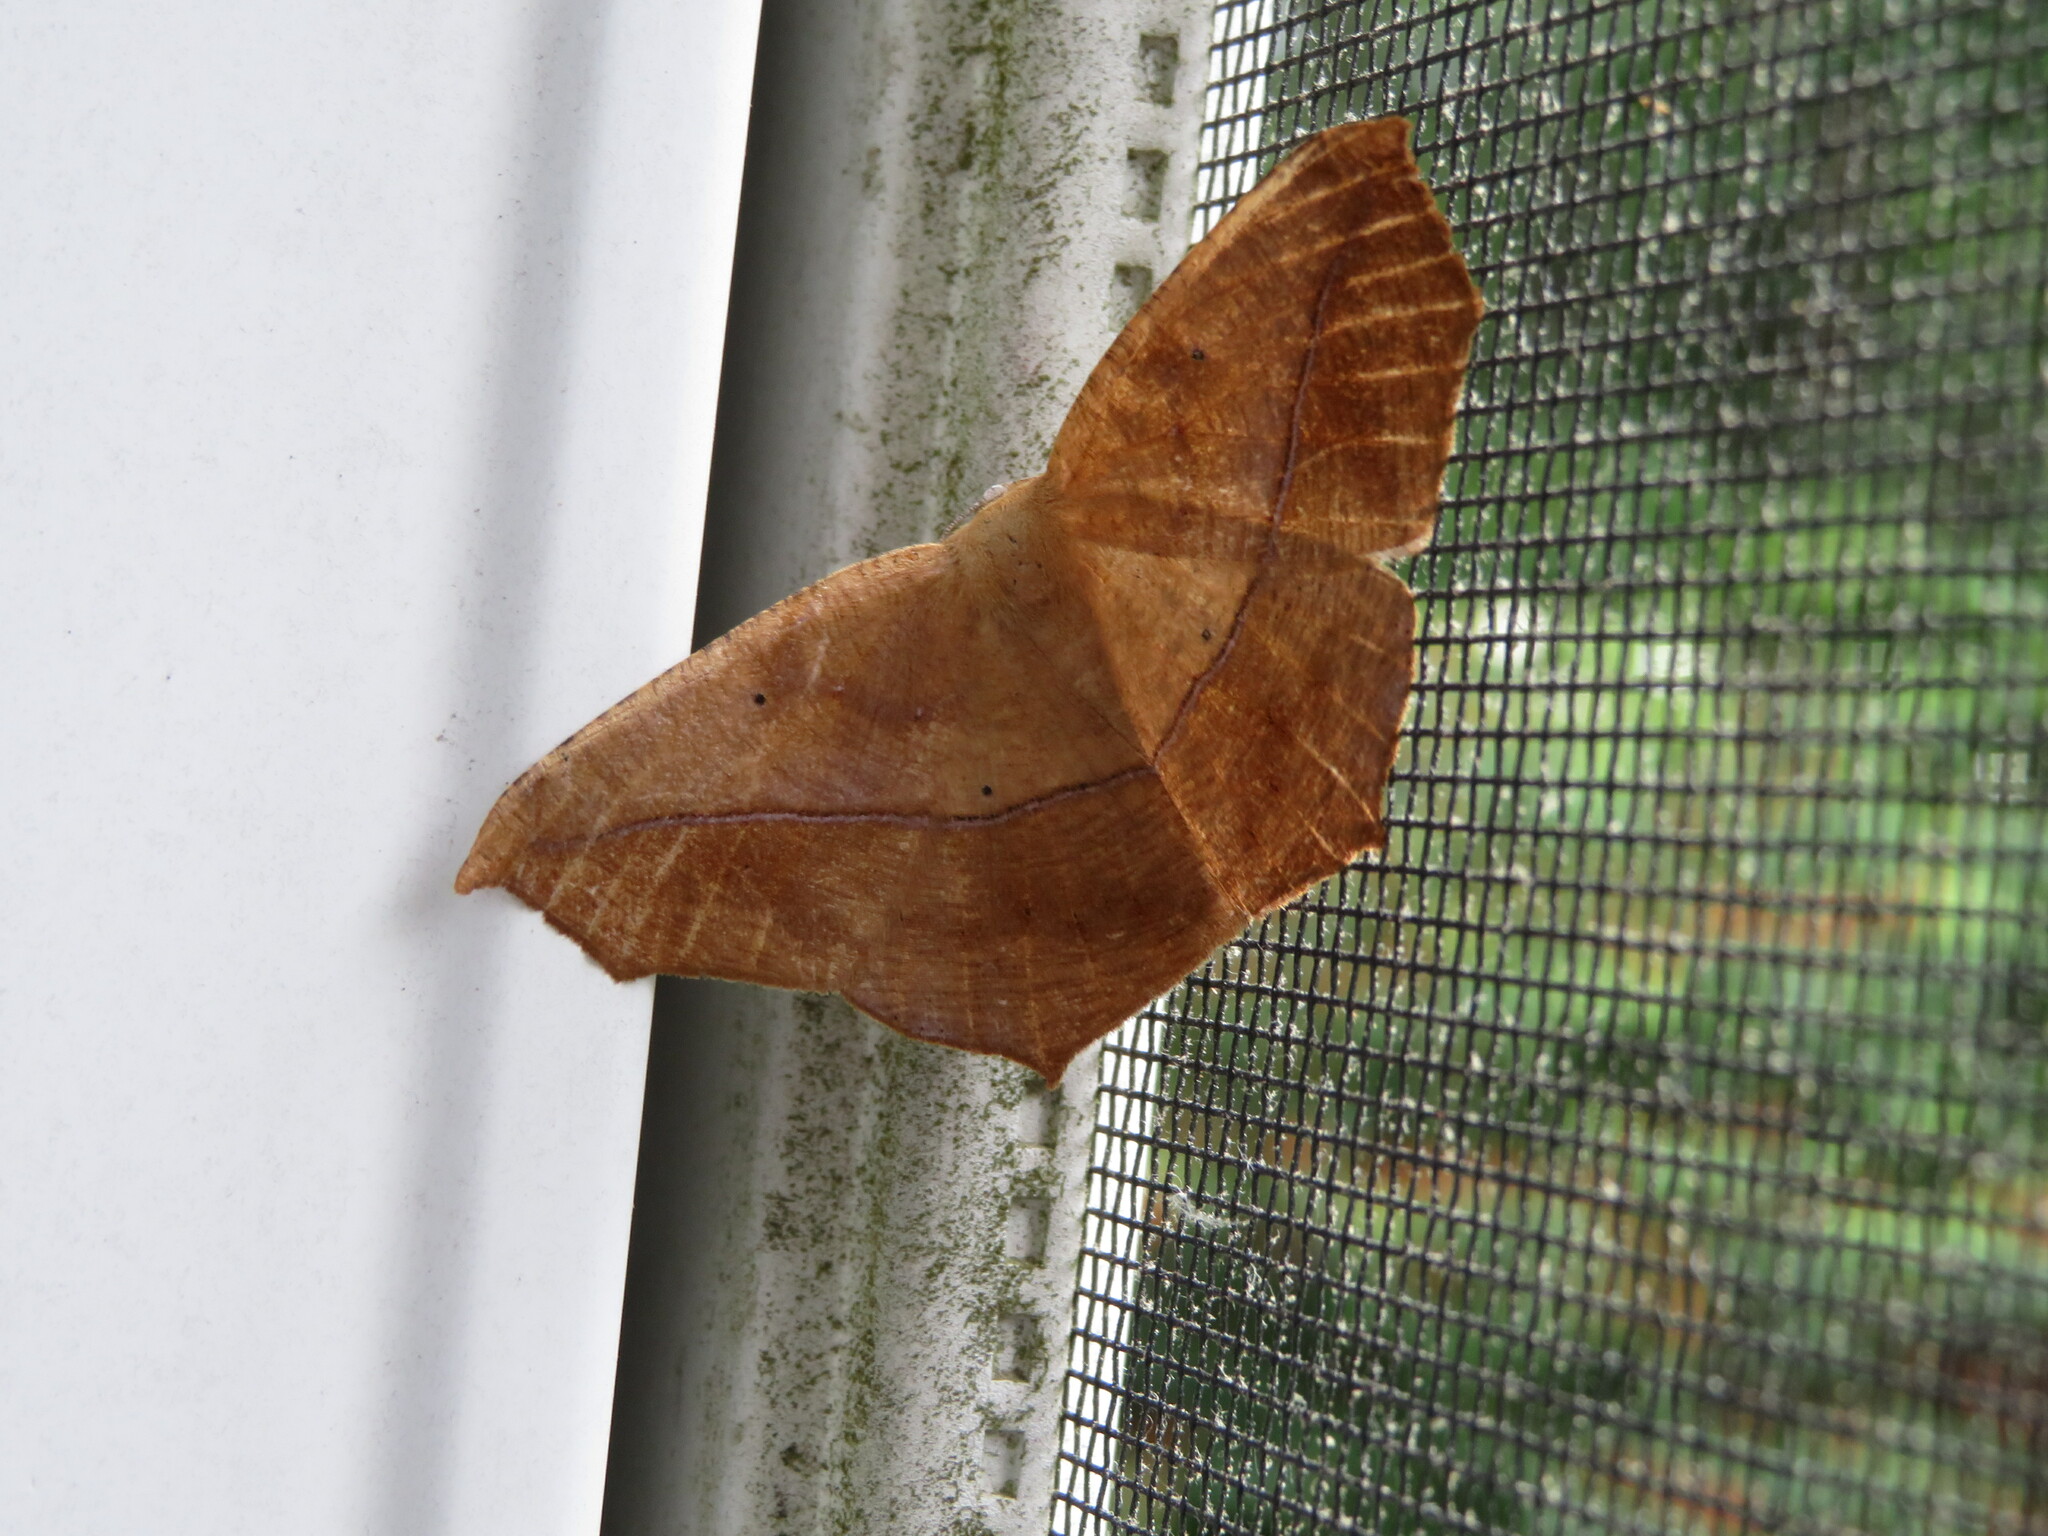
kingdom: Animalia
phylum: Arthropoda
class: Insecta
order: Lepidoptera
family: Geometridae
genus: Prochoerodes
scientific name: Prochoerodes lineola
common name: Large maple spanworm
